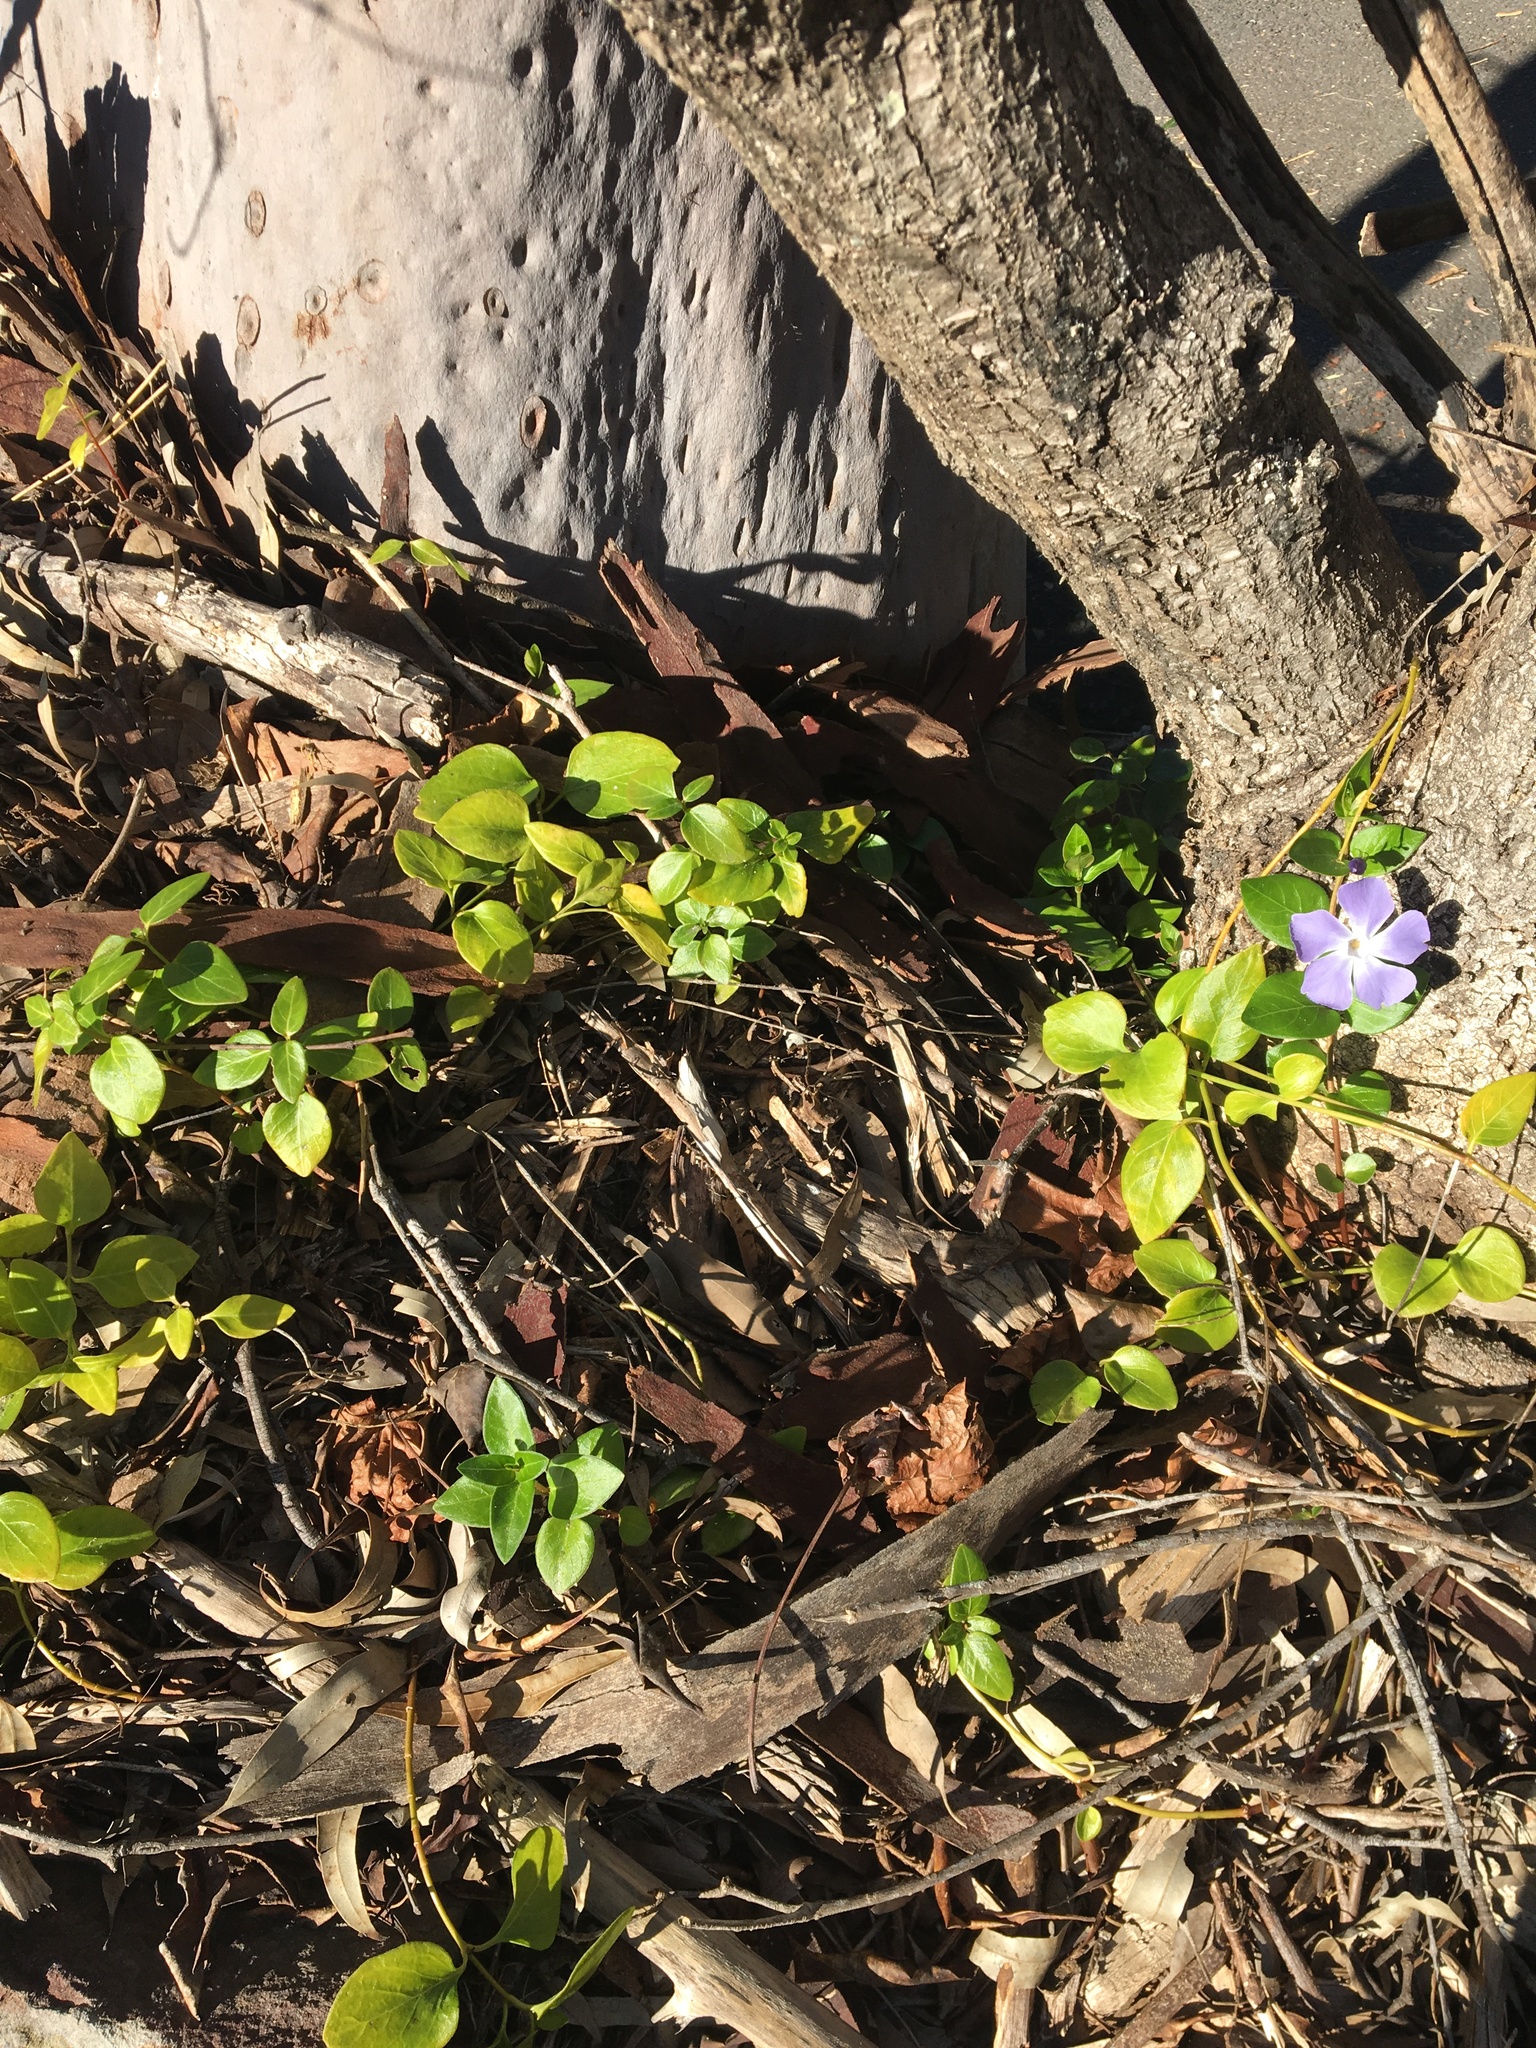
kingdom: Plantae
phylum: Tracheophyta
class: Magnoliopsida
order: Gentianales
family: Apocynaceae
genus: Vinca
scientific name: Vinca major
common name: Greater periwinkle
